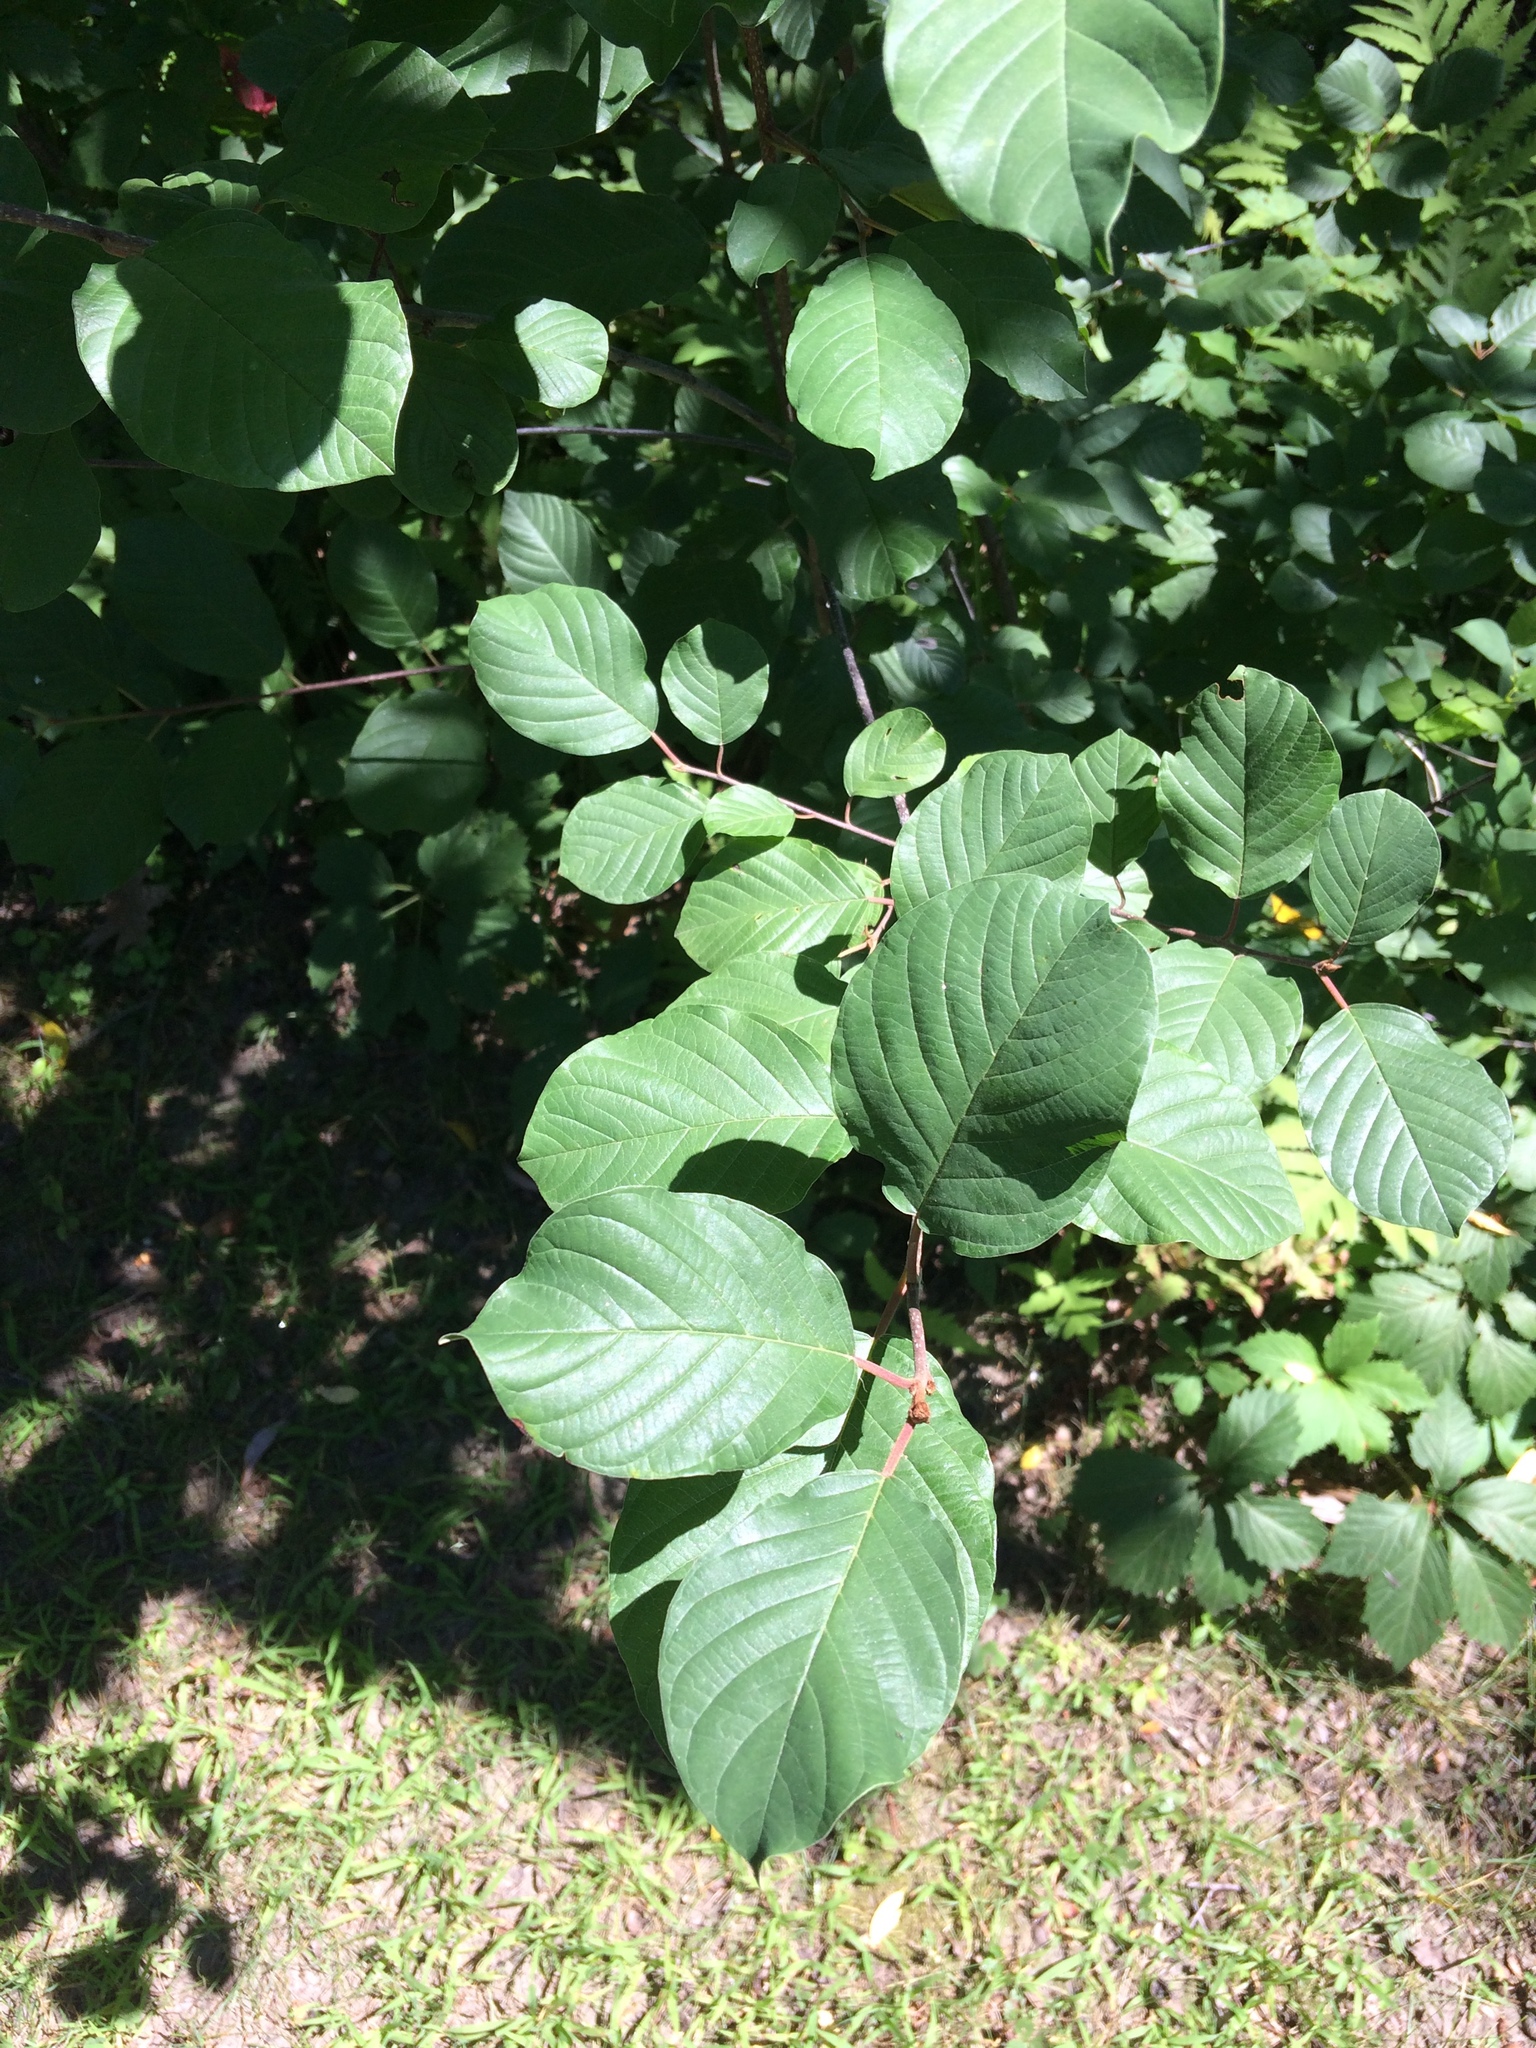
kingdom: Plantae
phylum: Tracheophyta
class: Magnoliopsida
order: Rosales
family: Rhamnaceae
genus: Frangula
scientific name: Frangula alnus
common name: Alder buckthorn
